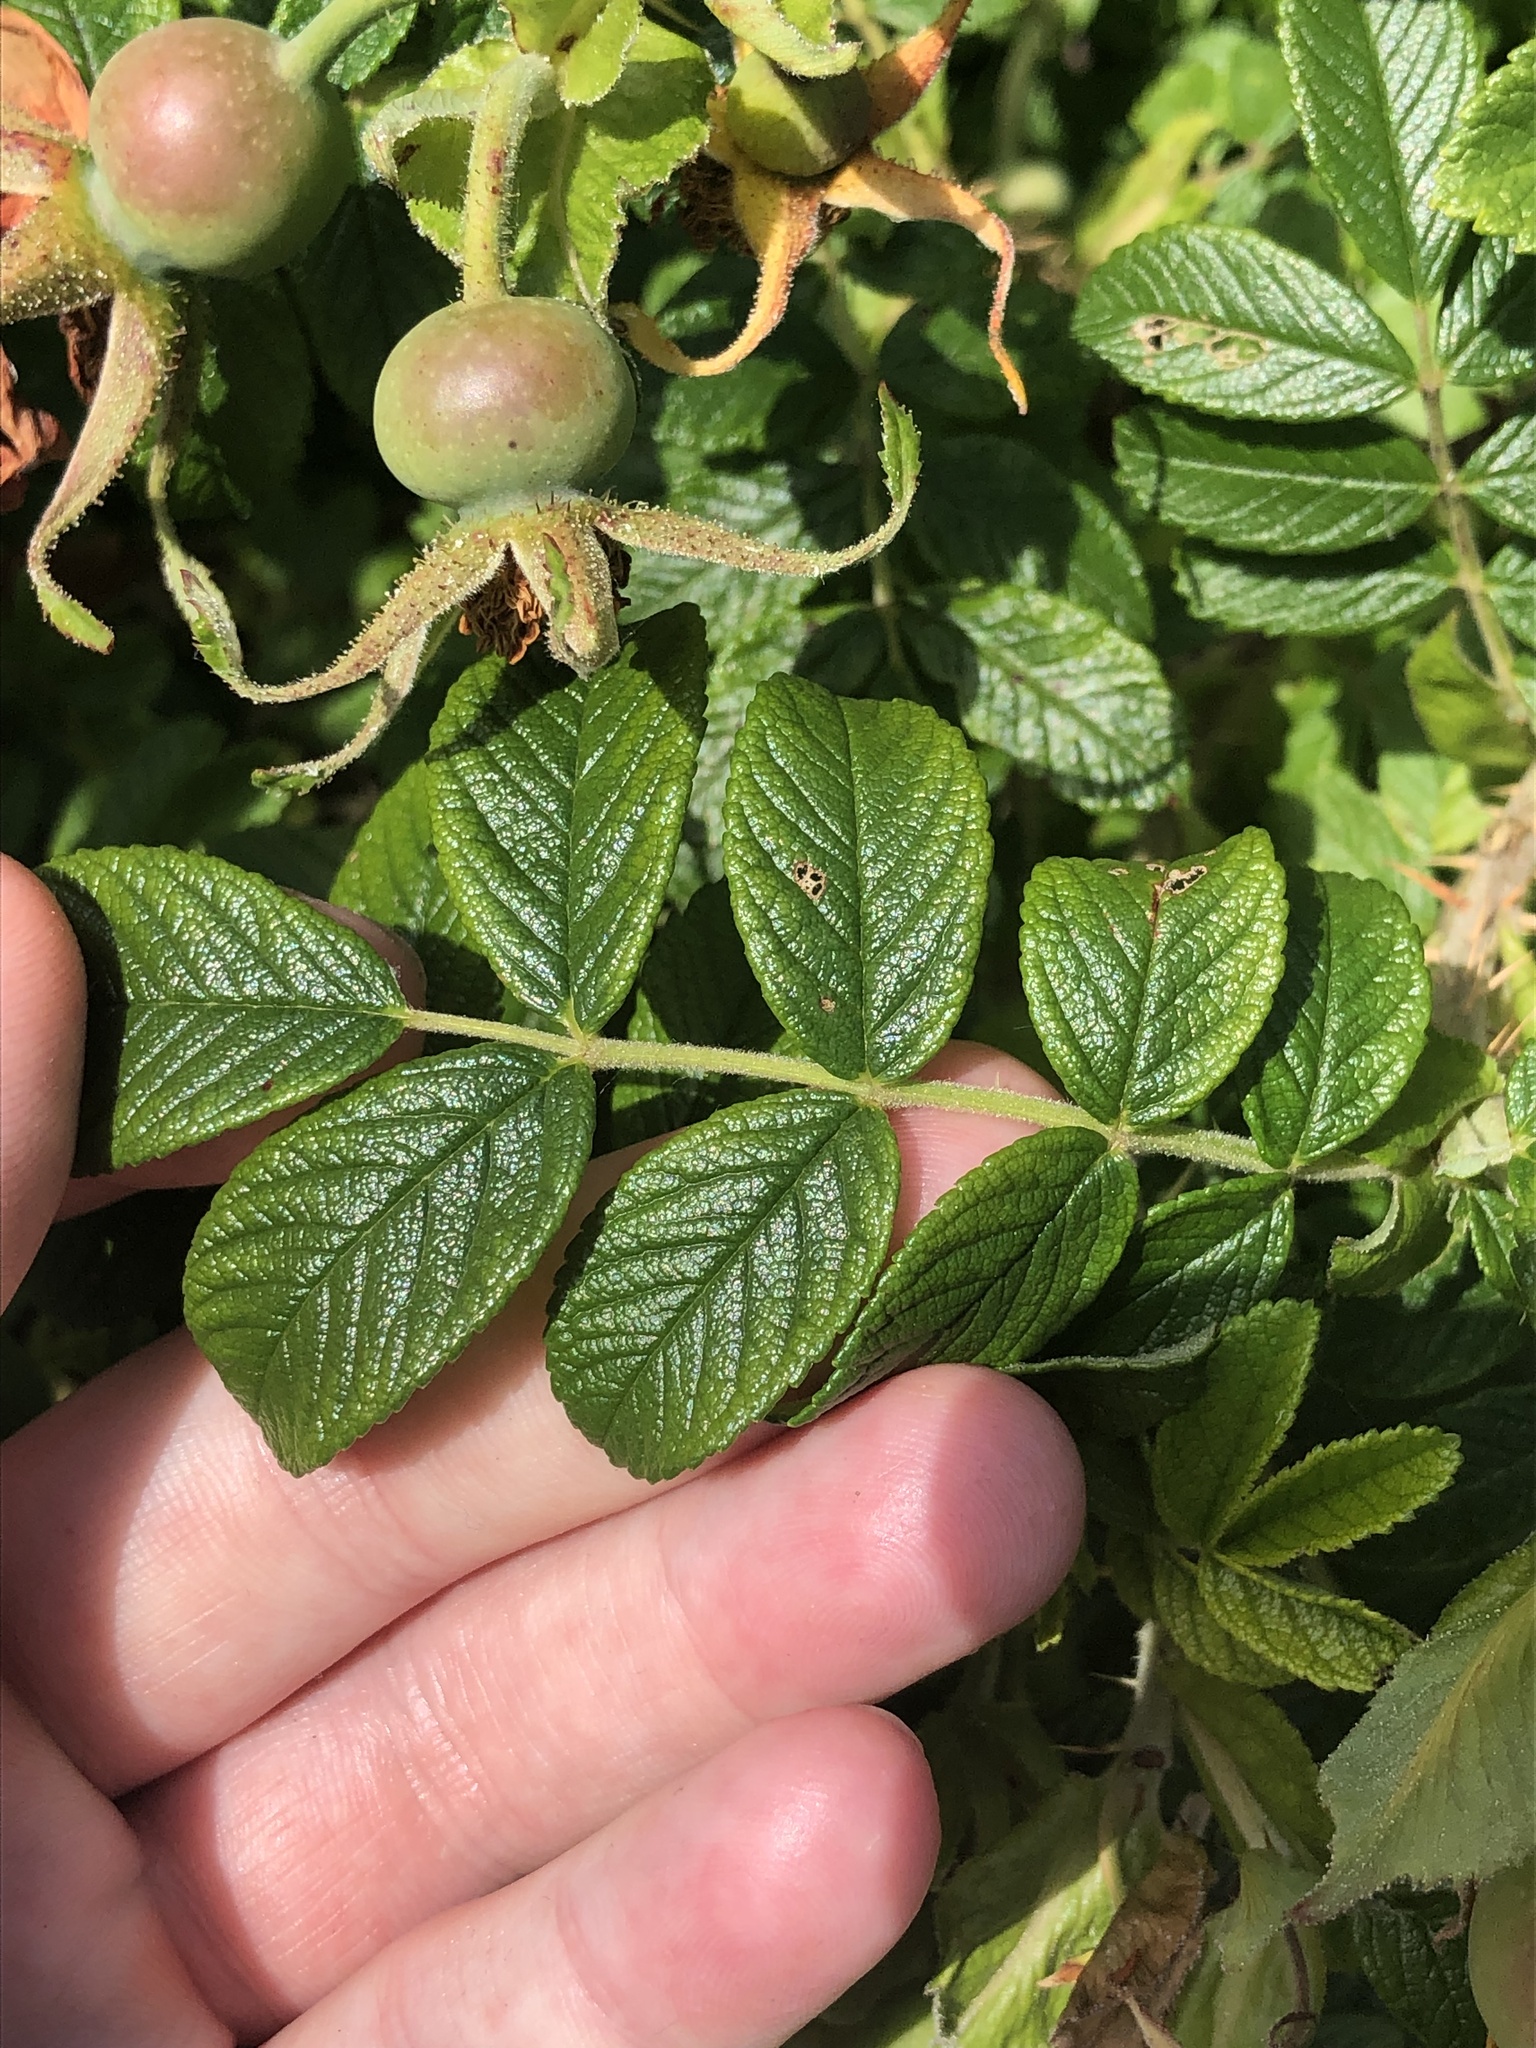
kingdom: Plantae
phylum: Tracheophyta
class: Magnoliopsida
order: Rosales
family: Rosaceae
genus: Rosa
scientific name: Rosa rugosa
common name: Japanese rose
